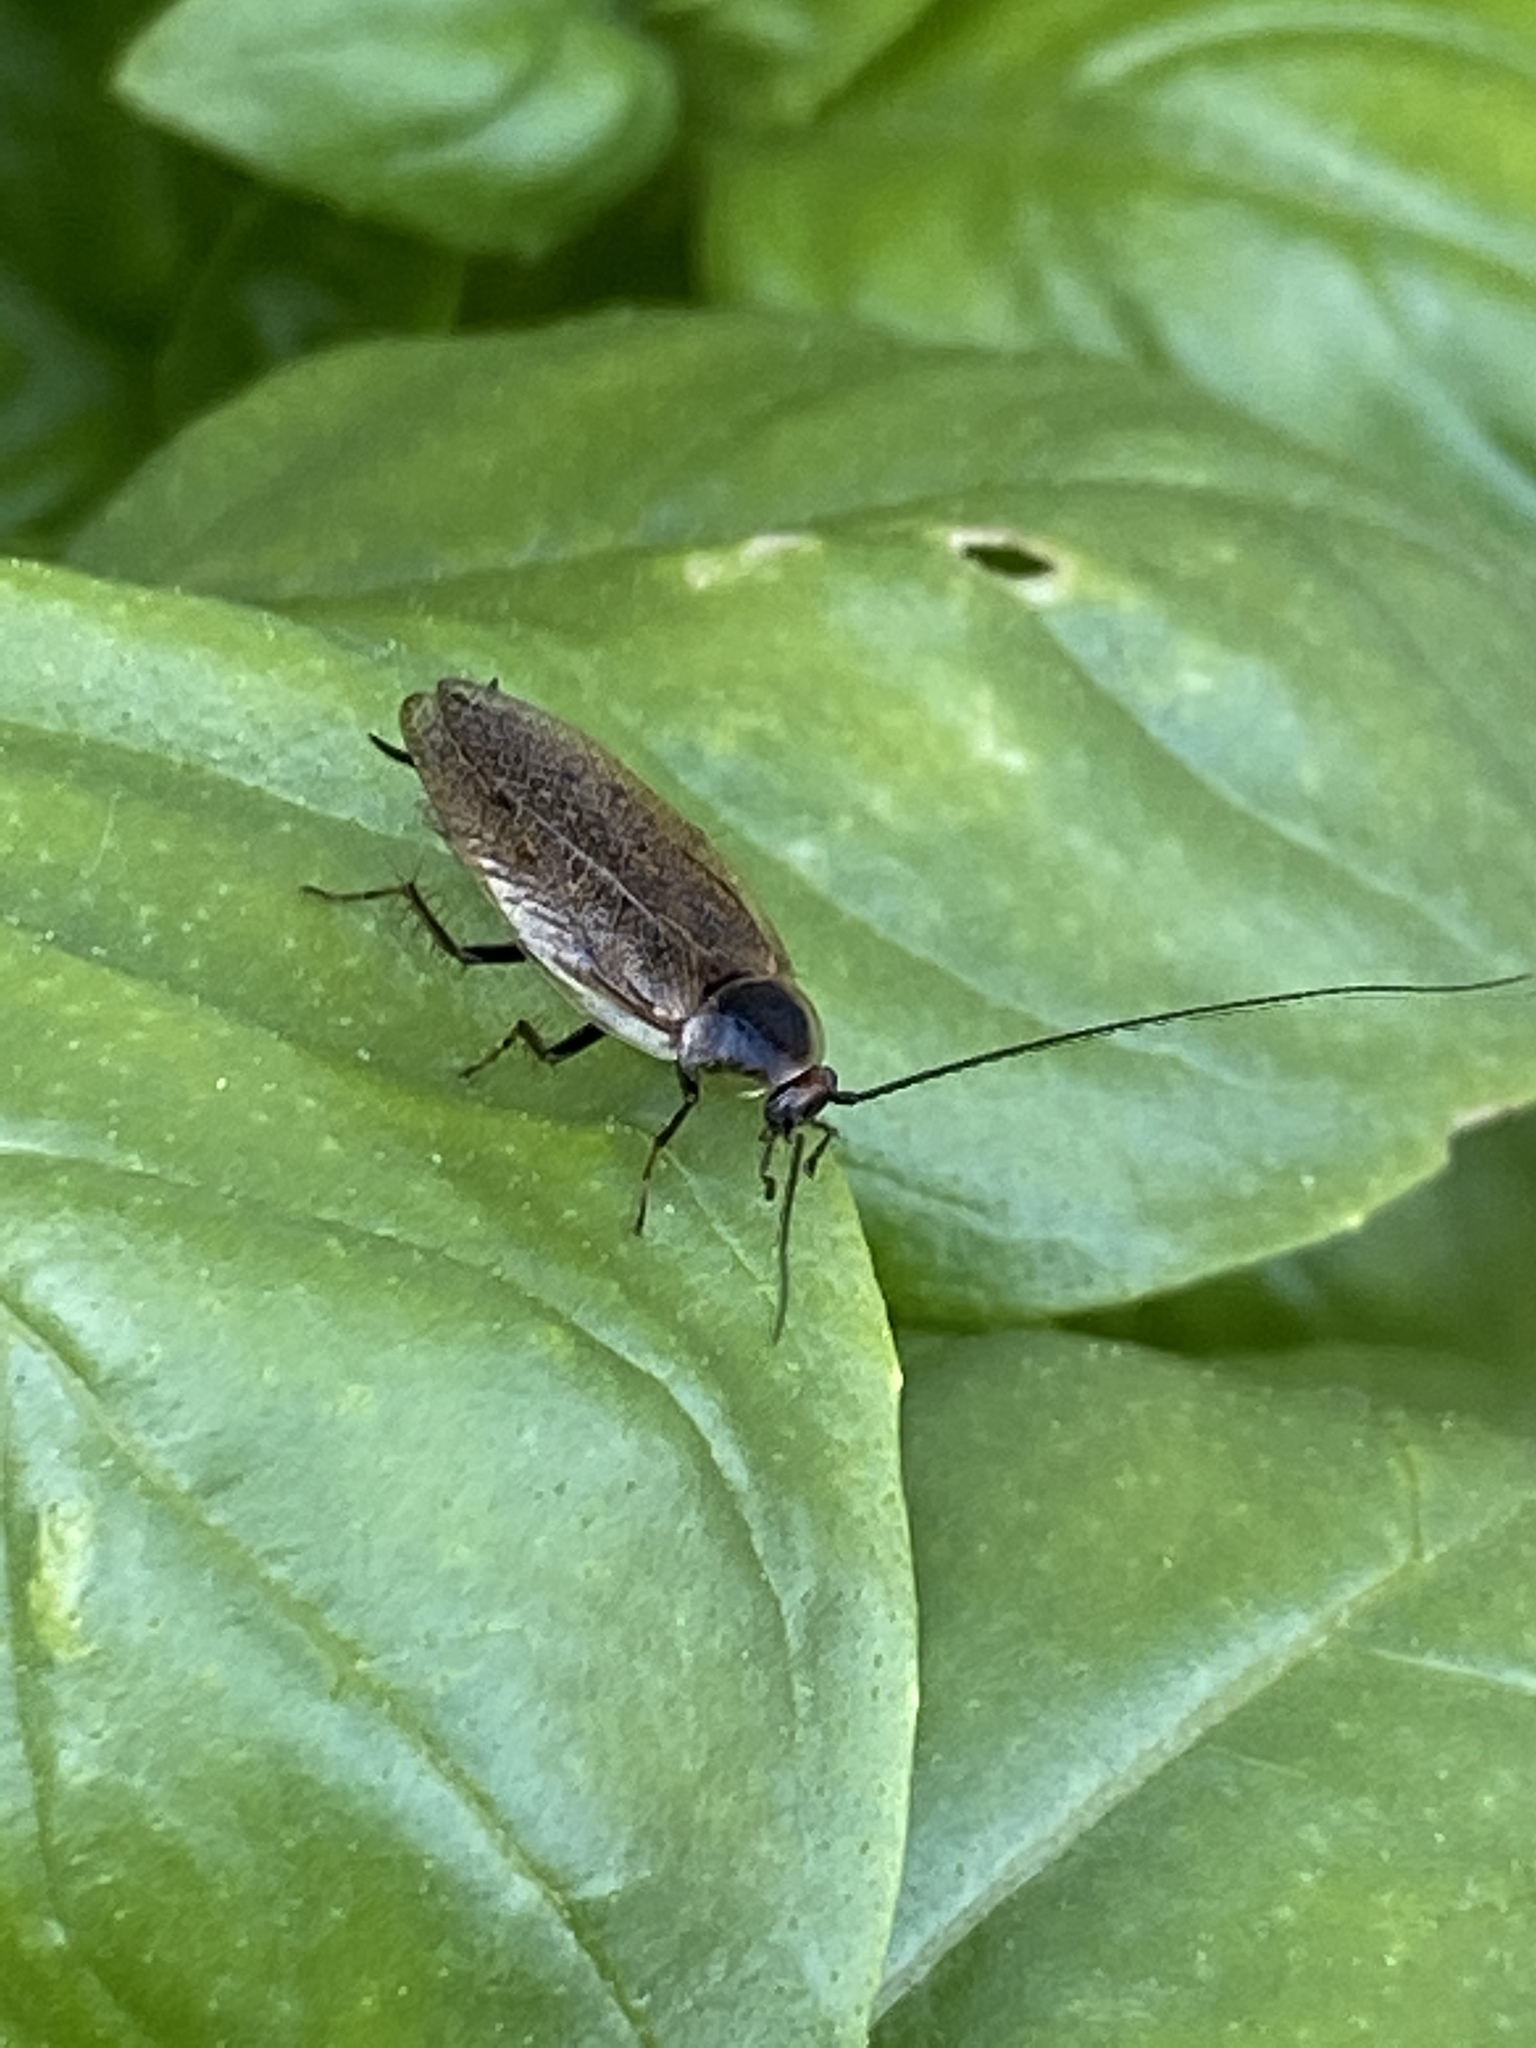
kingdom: Animalia
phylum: Arthropoda
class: Insecta
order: Blattodea
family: Ectobiidae
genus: Ectobius
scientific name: Ectobius lapponicus
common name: Dusky cockroach
